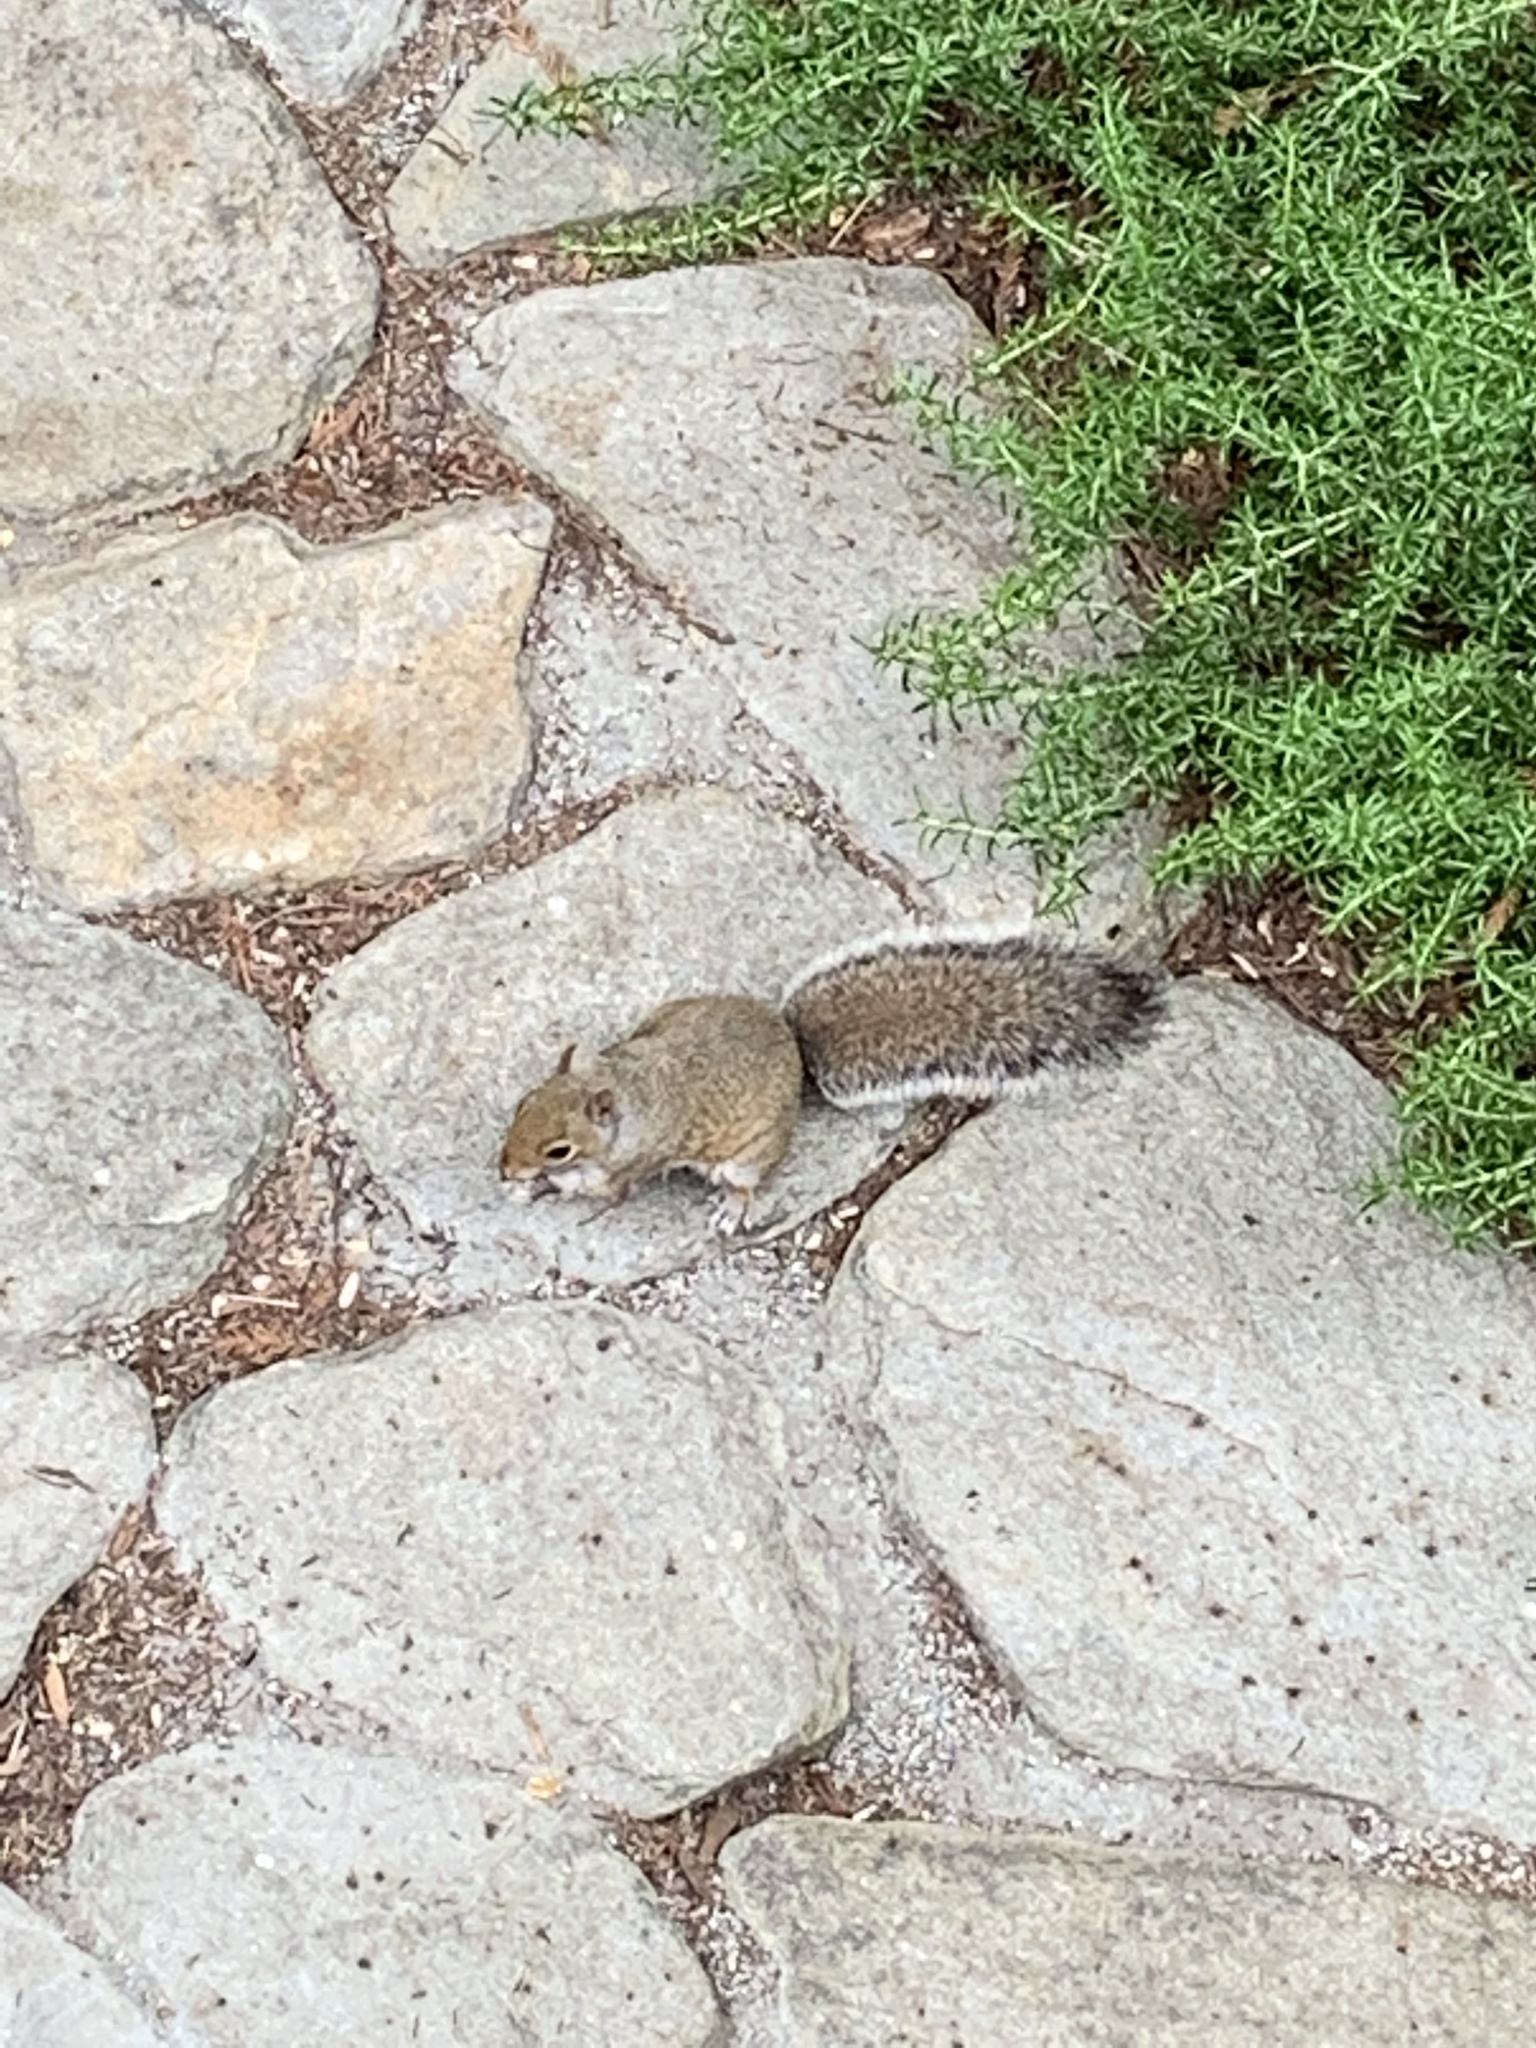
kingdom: Animalia
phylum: Chordata
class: Mammalia
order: Rodentia
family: Sciuridae
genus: Sciurus
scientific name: Sciurus carolinensis
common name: Eastern gray squirrel
